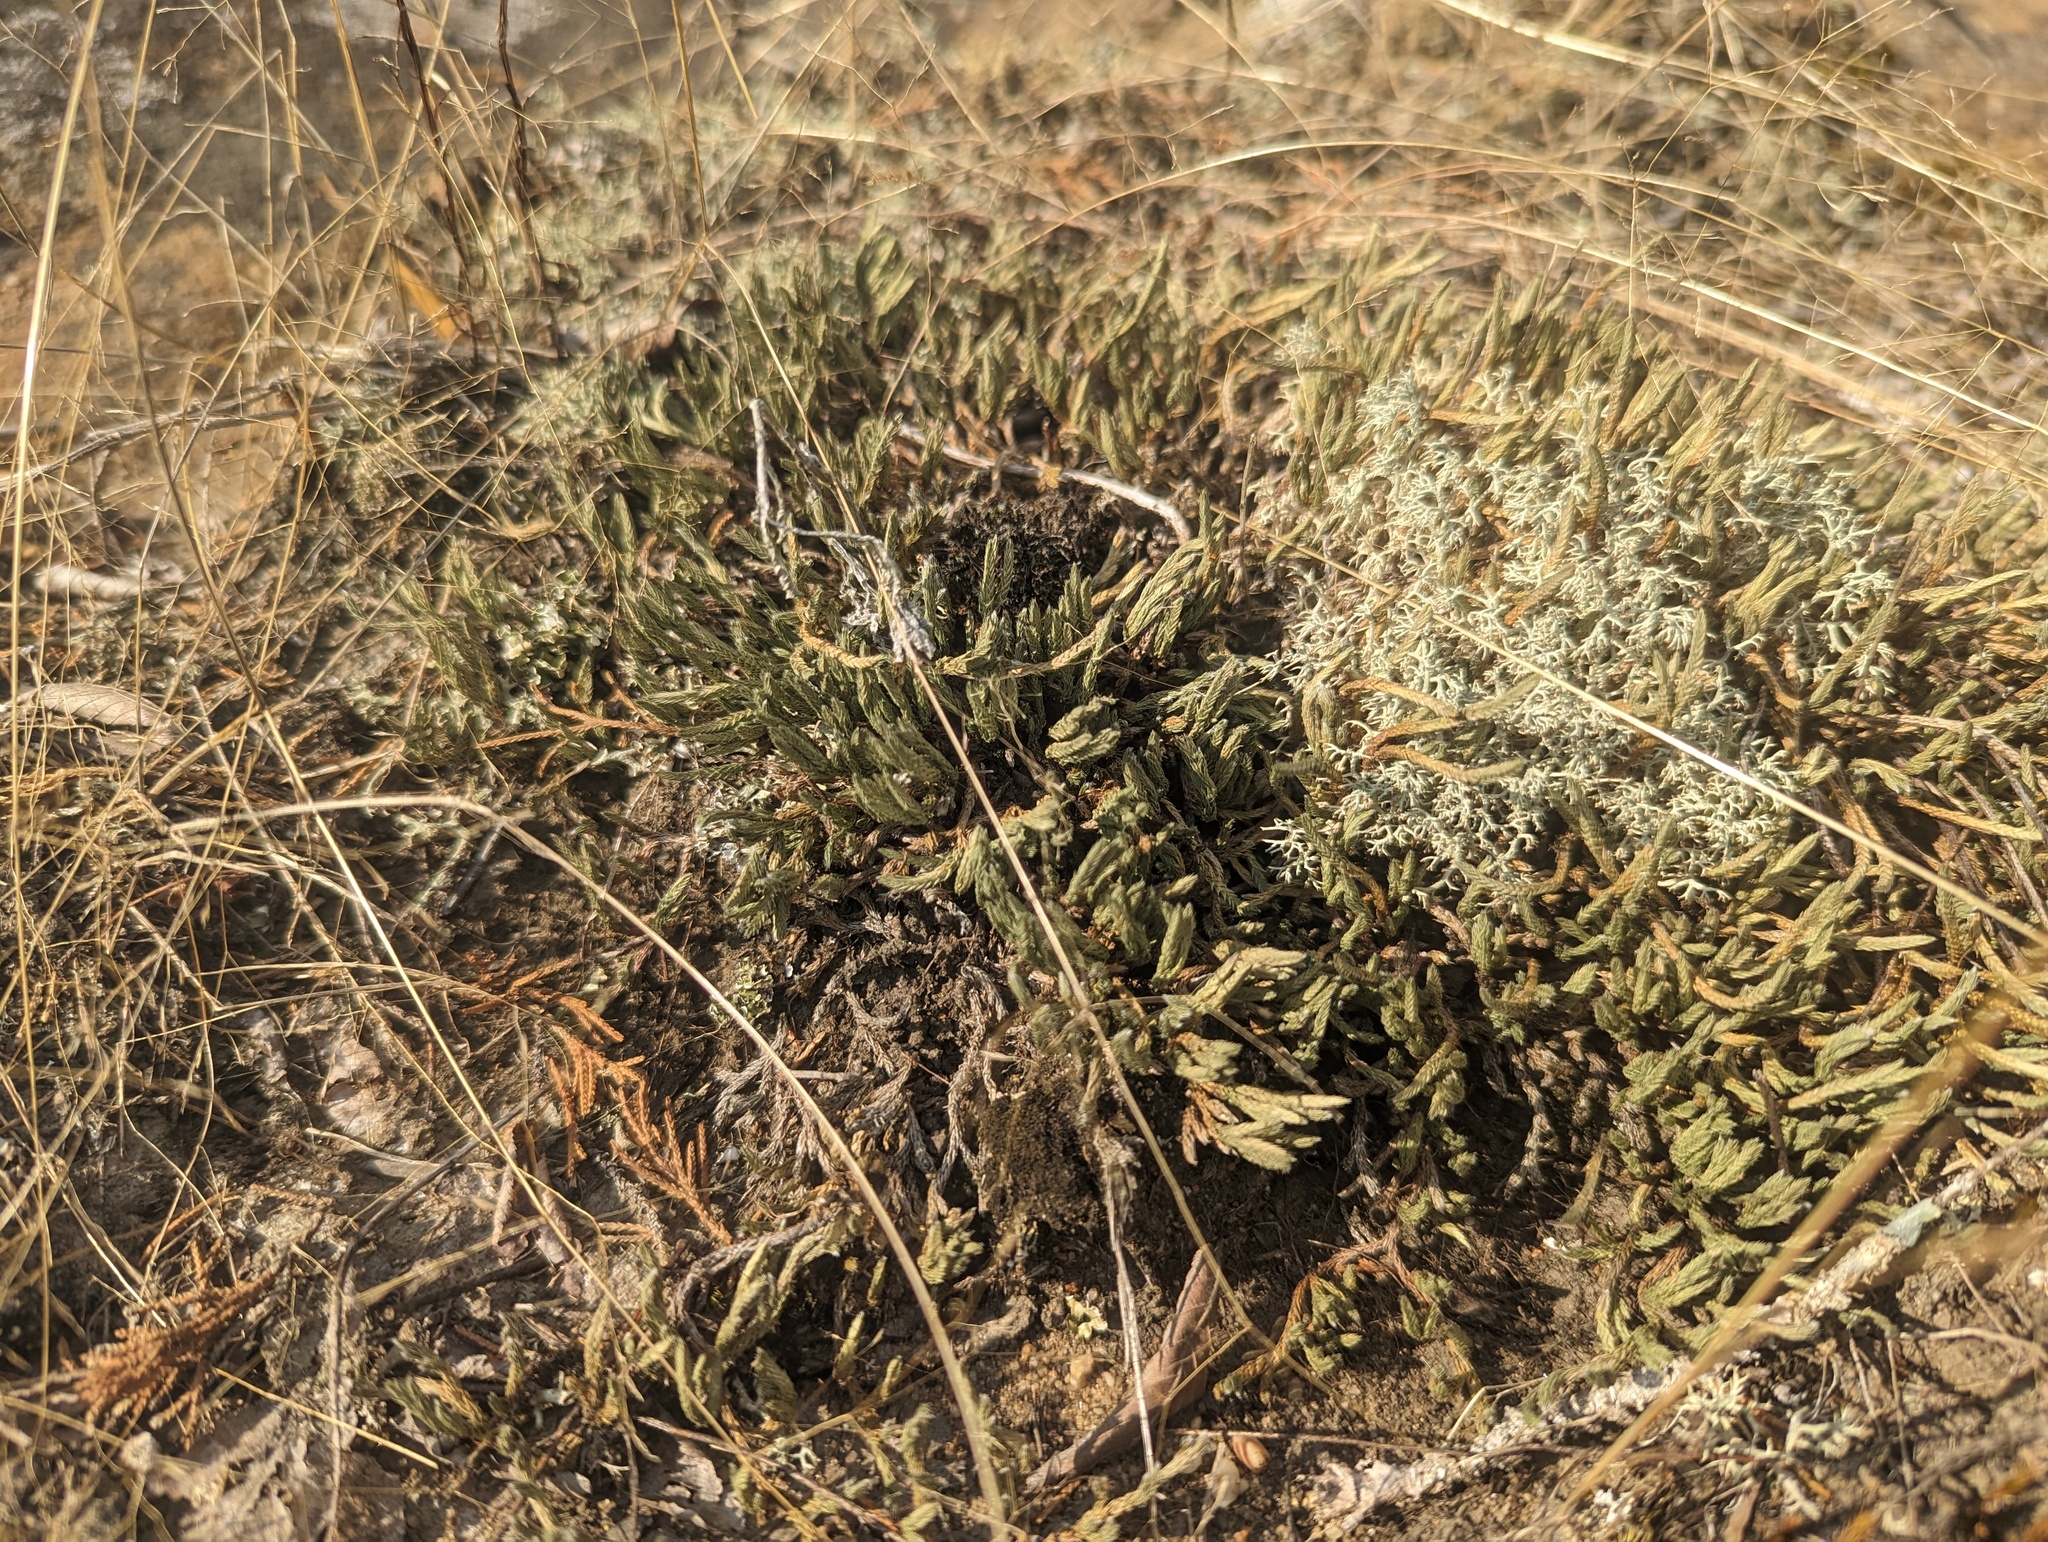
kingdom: Plantae
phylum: Tracheophyta
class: Lycopodiopsida
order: Selaginellales
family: Selaginellaceae
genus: Selaginella
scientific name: Selaginella rupestris
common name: Dwarf spikemoss
